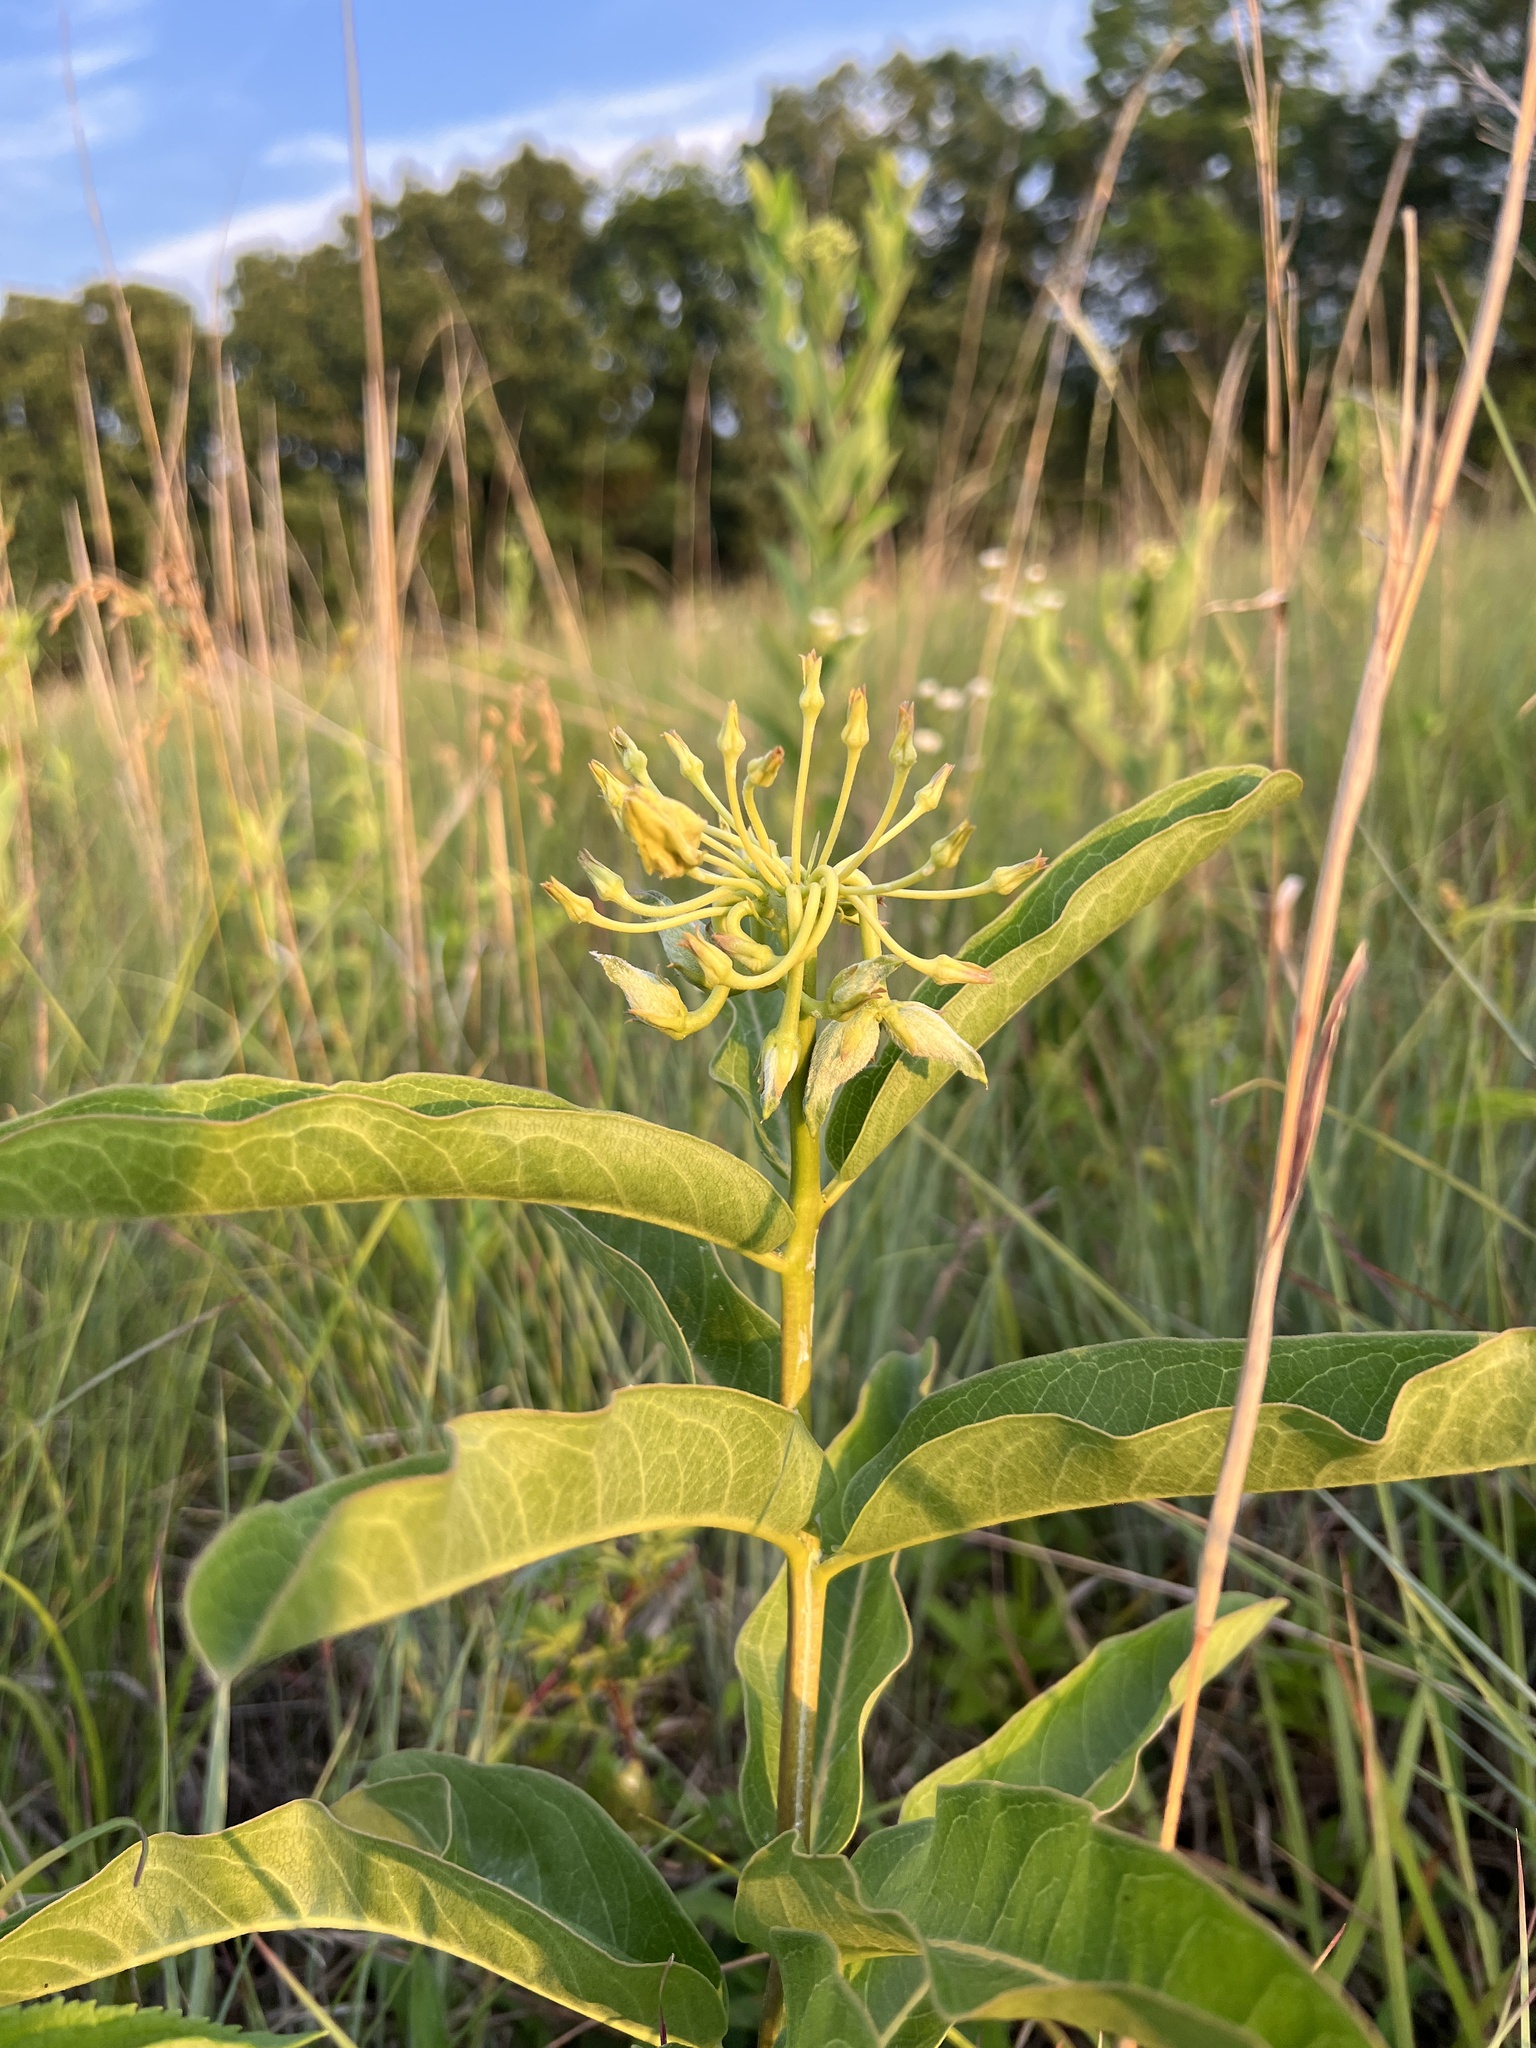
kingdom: Plantae
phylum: Tracheophyta
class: Magnoliopsida
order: Gentianales
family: Apocynaceae
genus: Asclepias
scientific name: Asclepias viridis
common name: Antelope-horns
